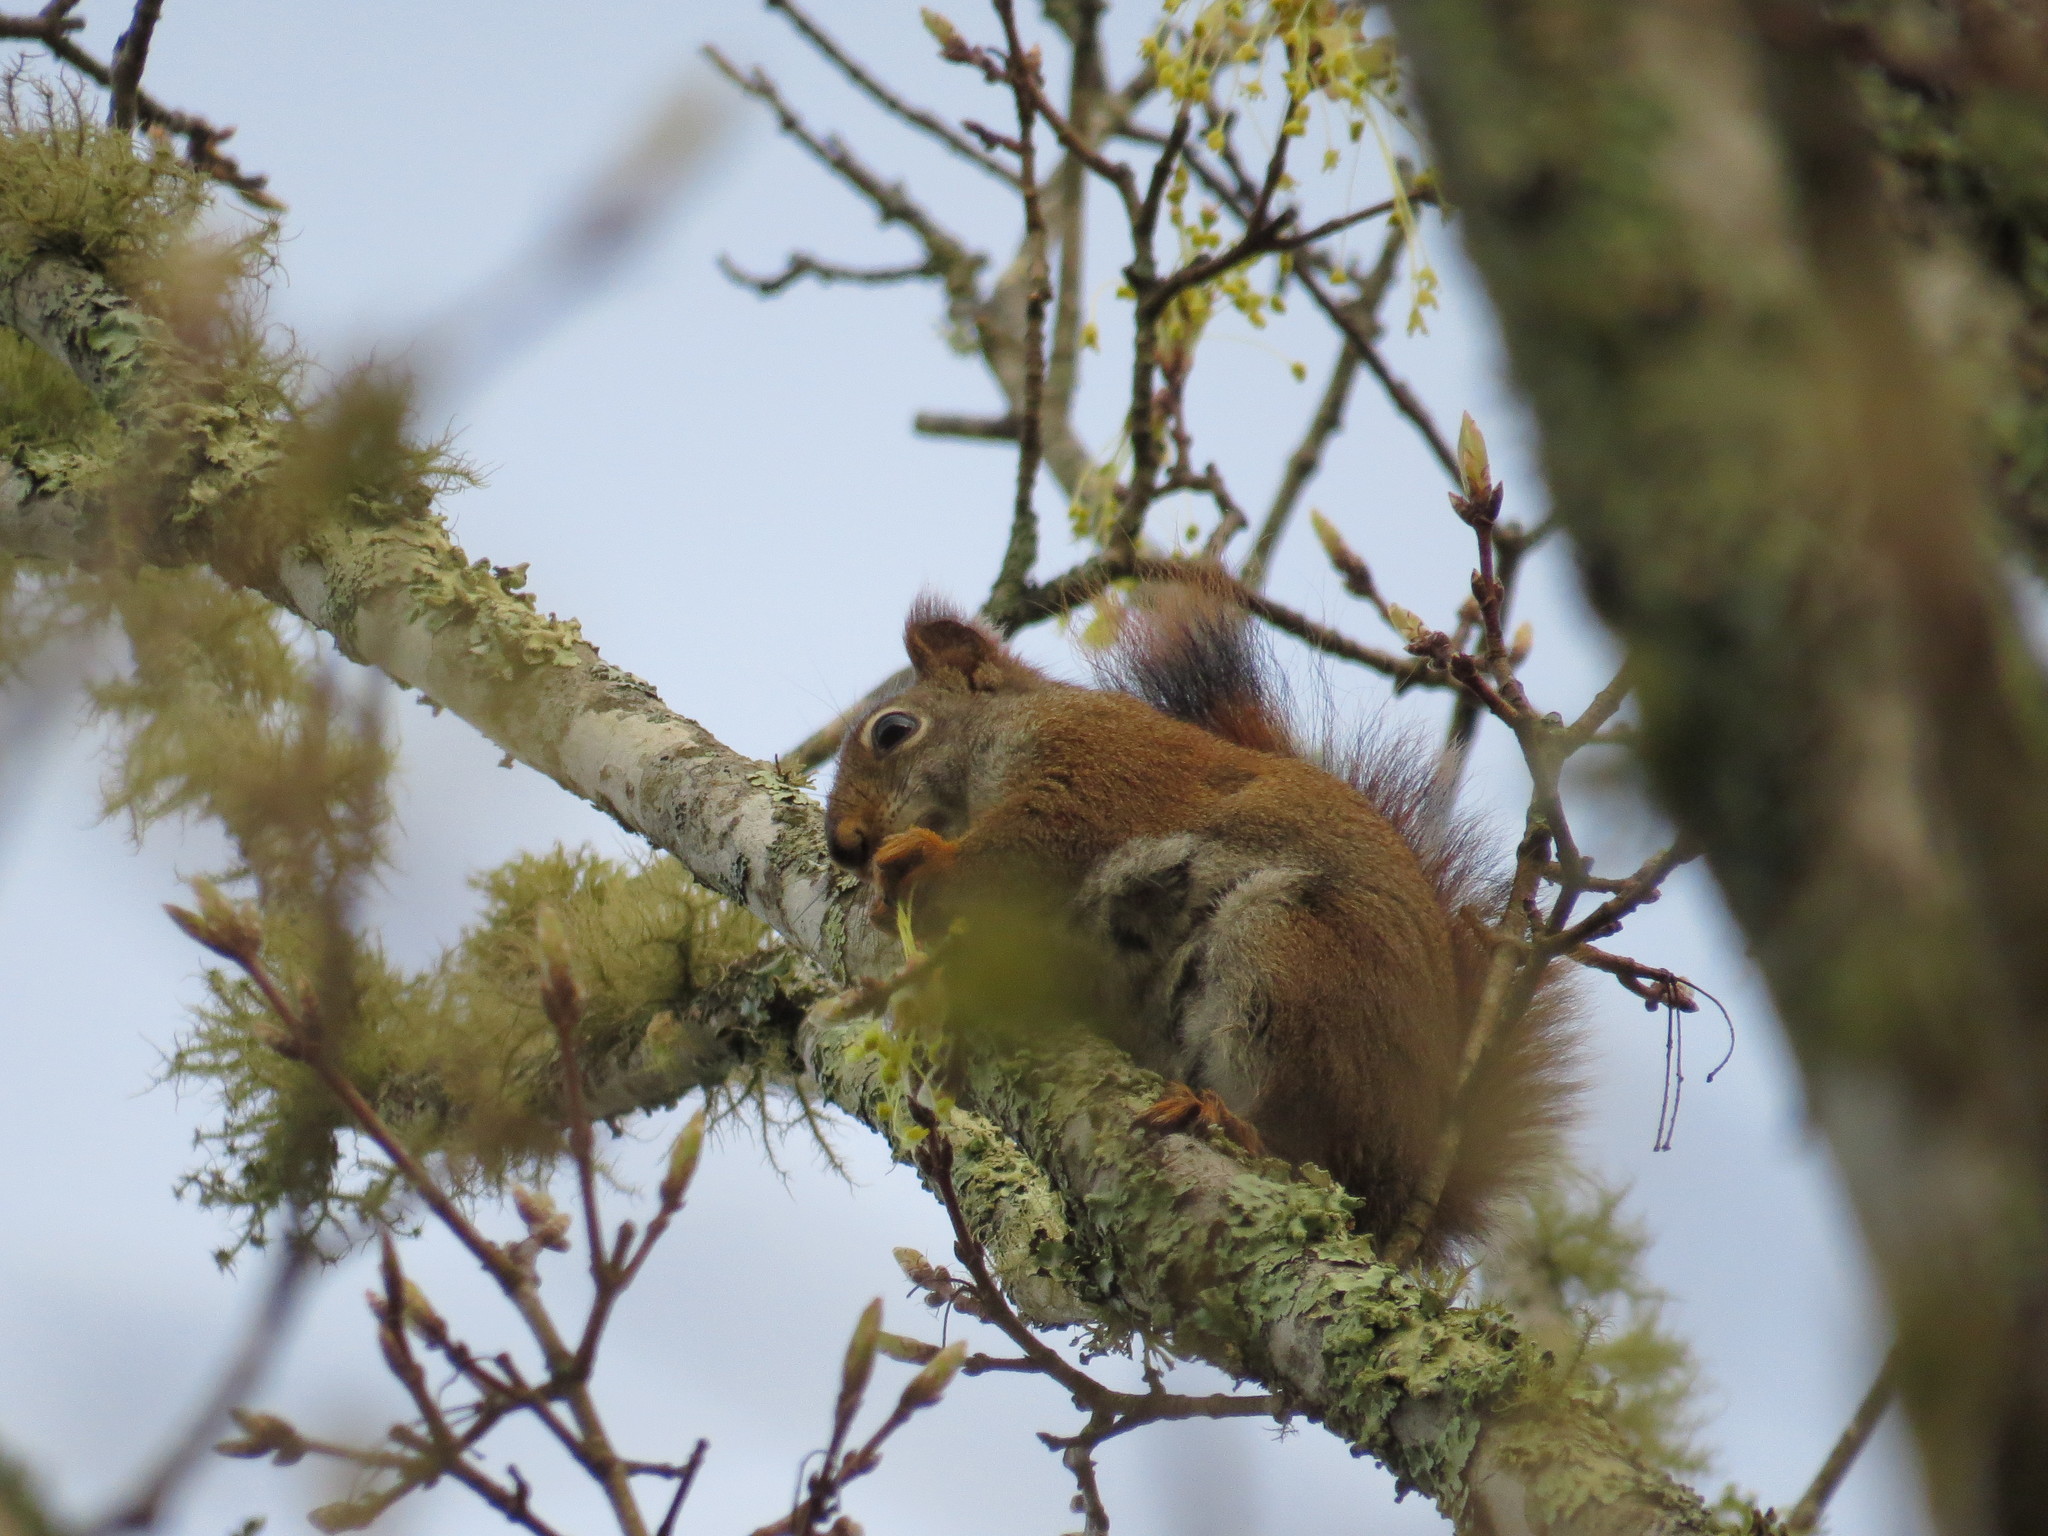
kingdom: Animalia
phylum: Chordata
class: Mammalia
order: Rodentia
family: Sciuridae
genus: Tamiasciurus
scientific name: Tamiasciurus hudsonicus
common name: Red squirrel
